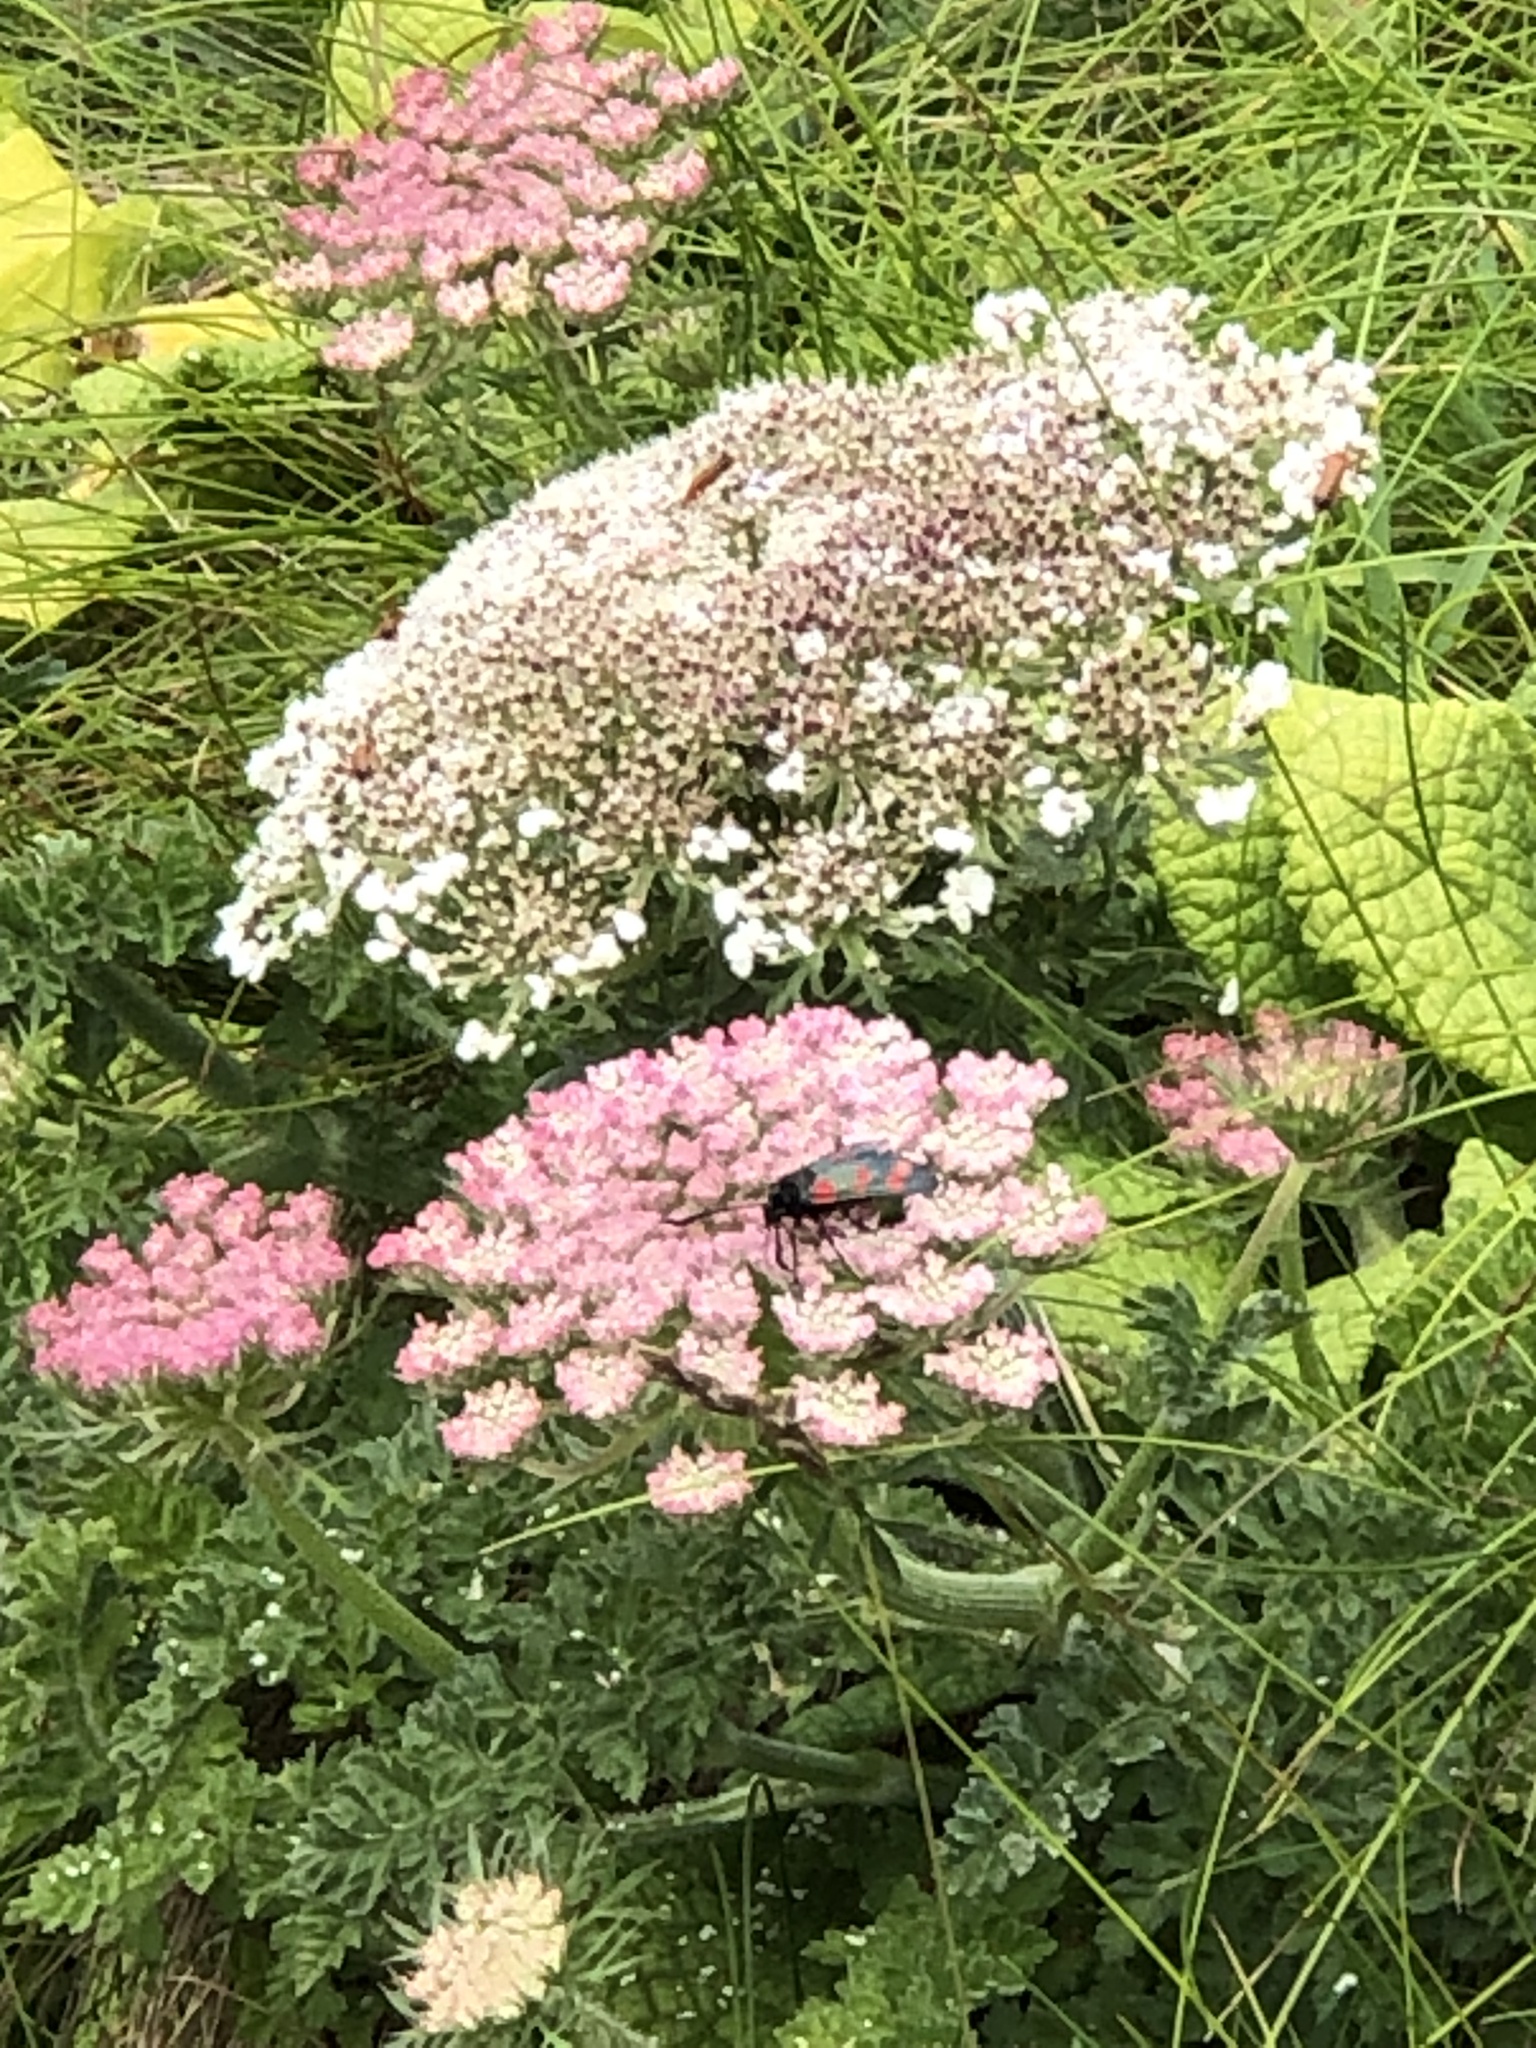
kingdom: Animalia
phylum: Arthropoda
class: Insecta
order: Lepidoptera
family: Zygaenidae
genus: Zygaena
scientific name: Zygaena filipendulae
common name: Six-spot burnet
